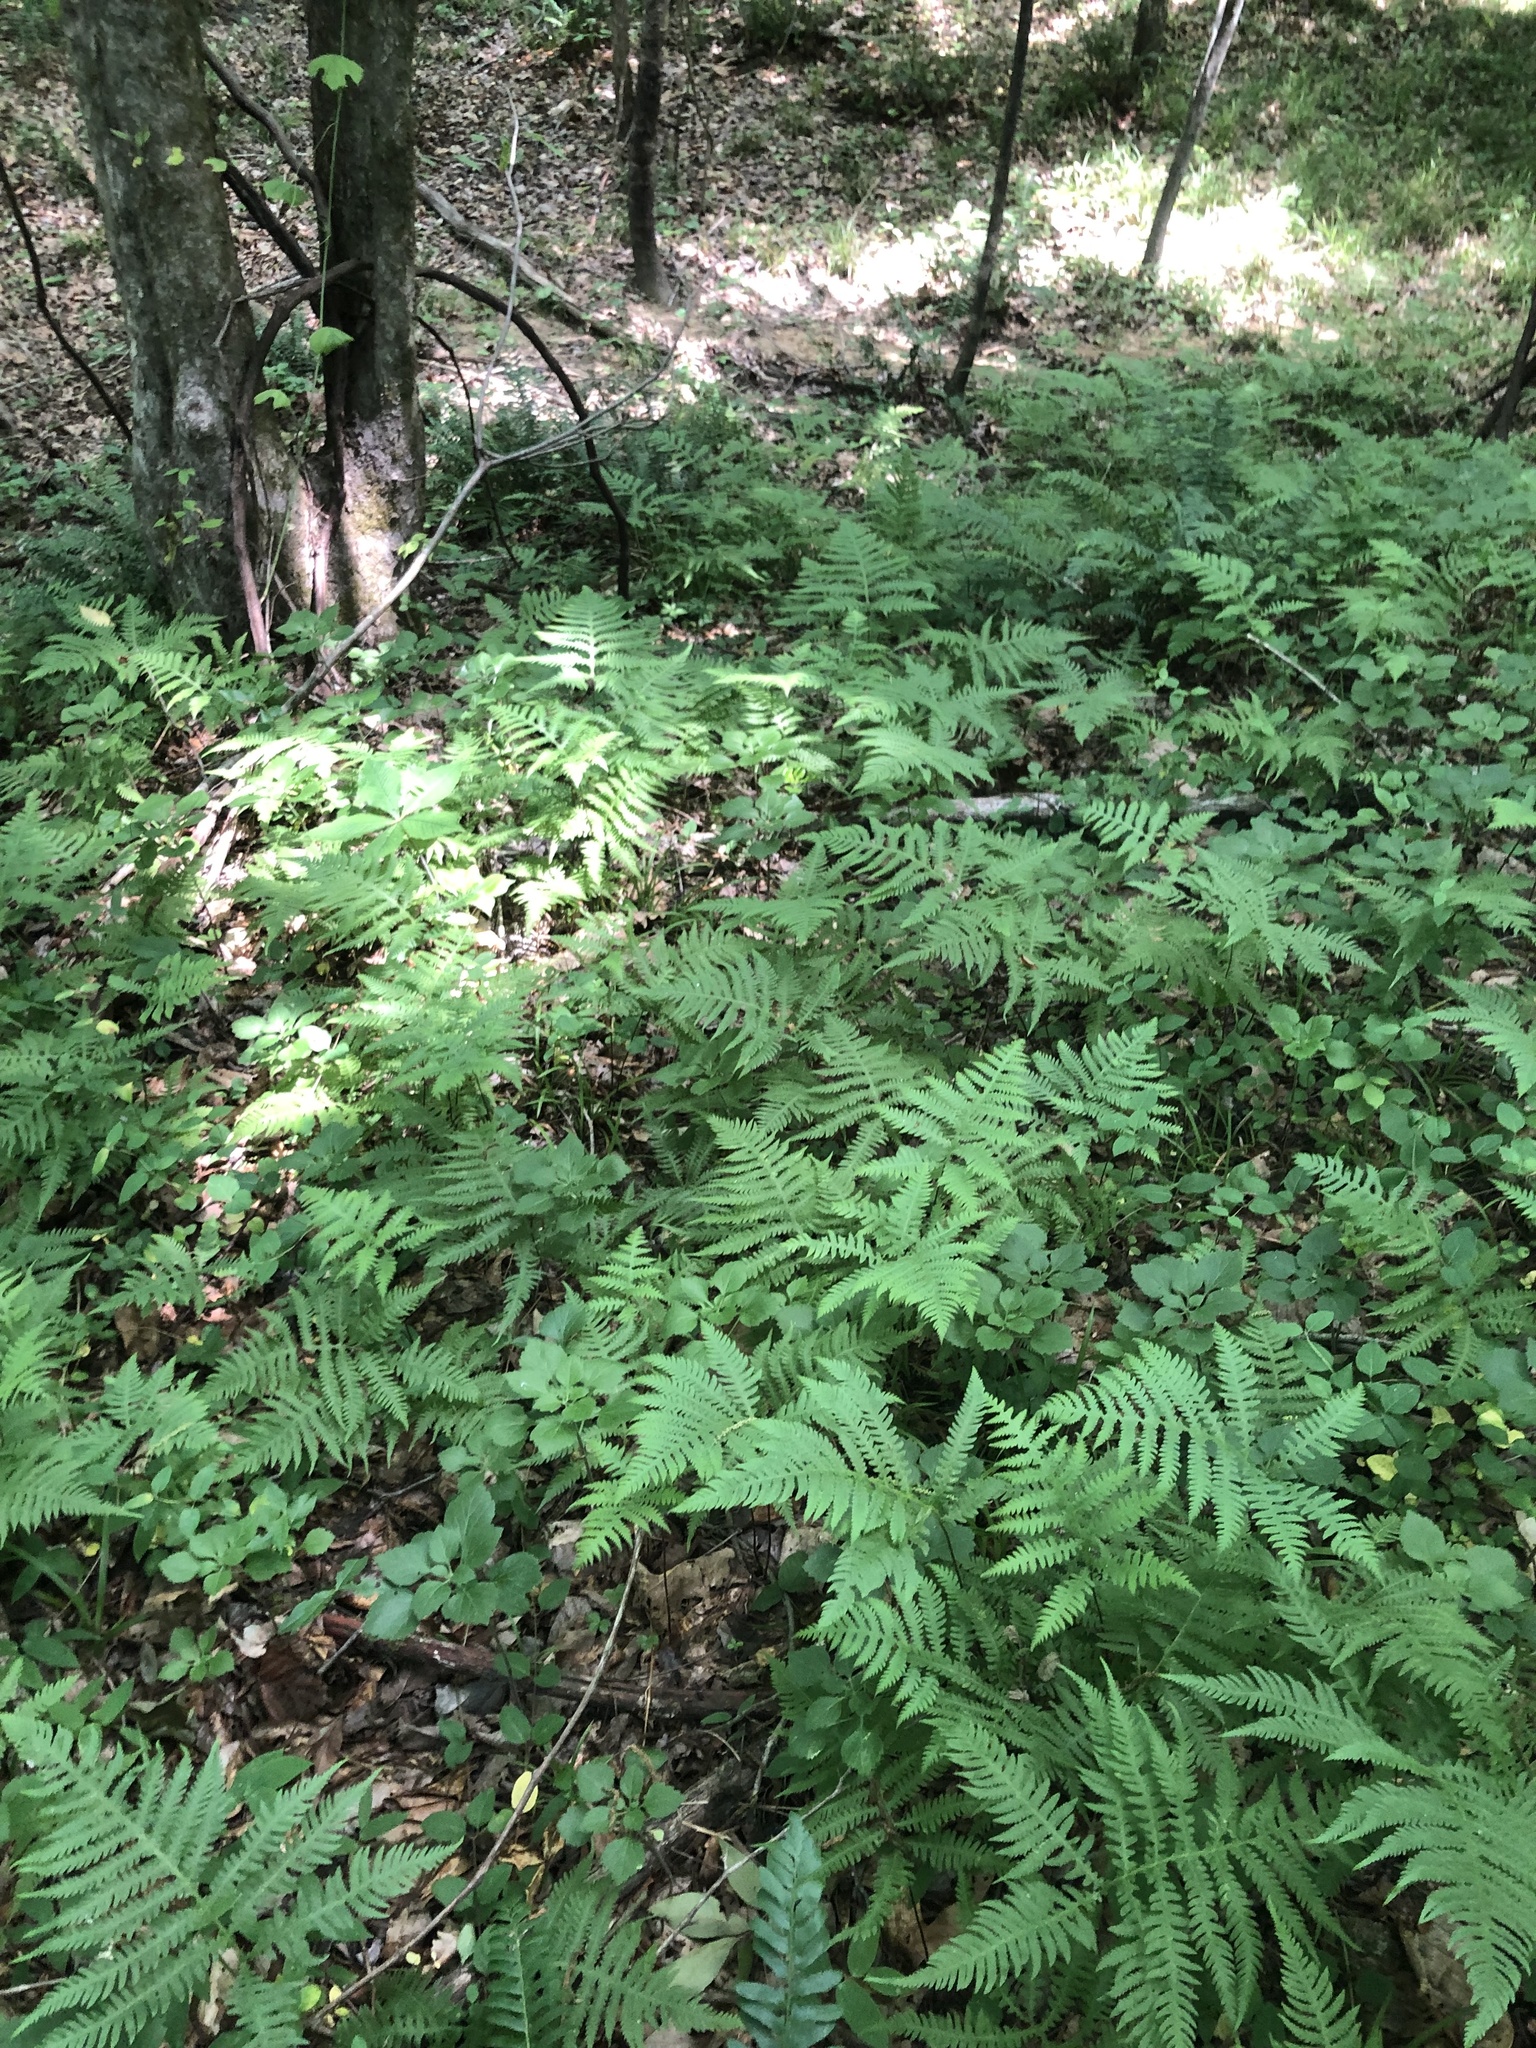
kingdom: Plantae
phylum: Tracheophyta
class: Polypodiopsida
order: Polypodiales
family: Thelypteridaceae
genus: Phegopteris
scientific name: Phegopteris hexagonoptera
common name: Broad beech fern
